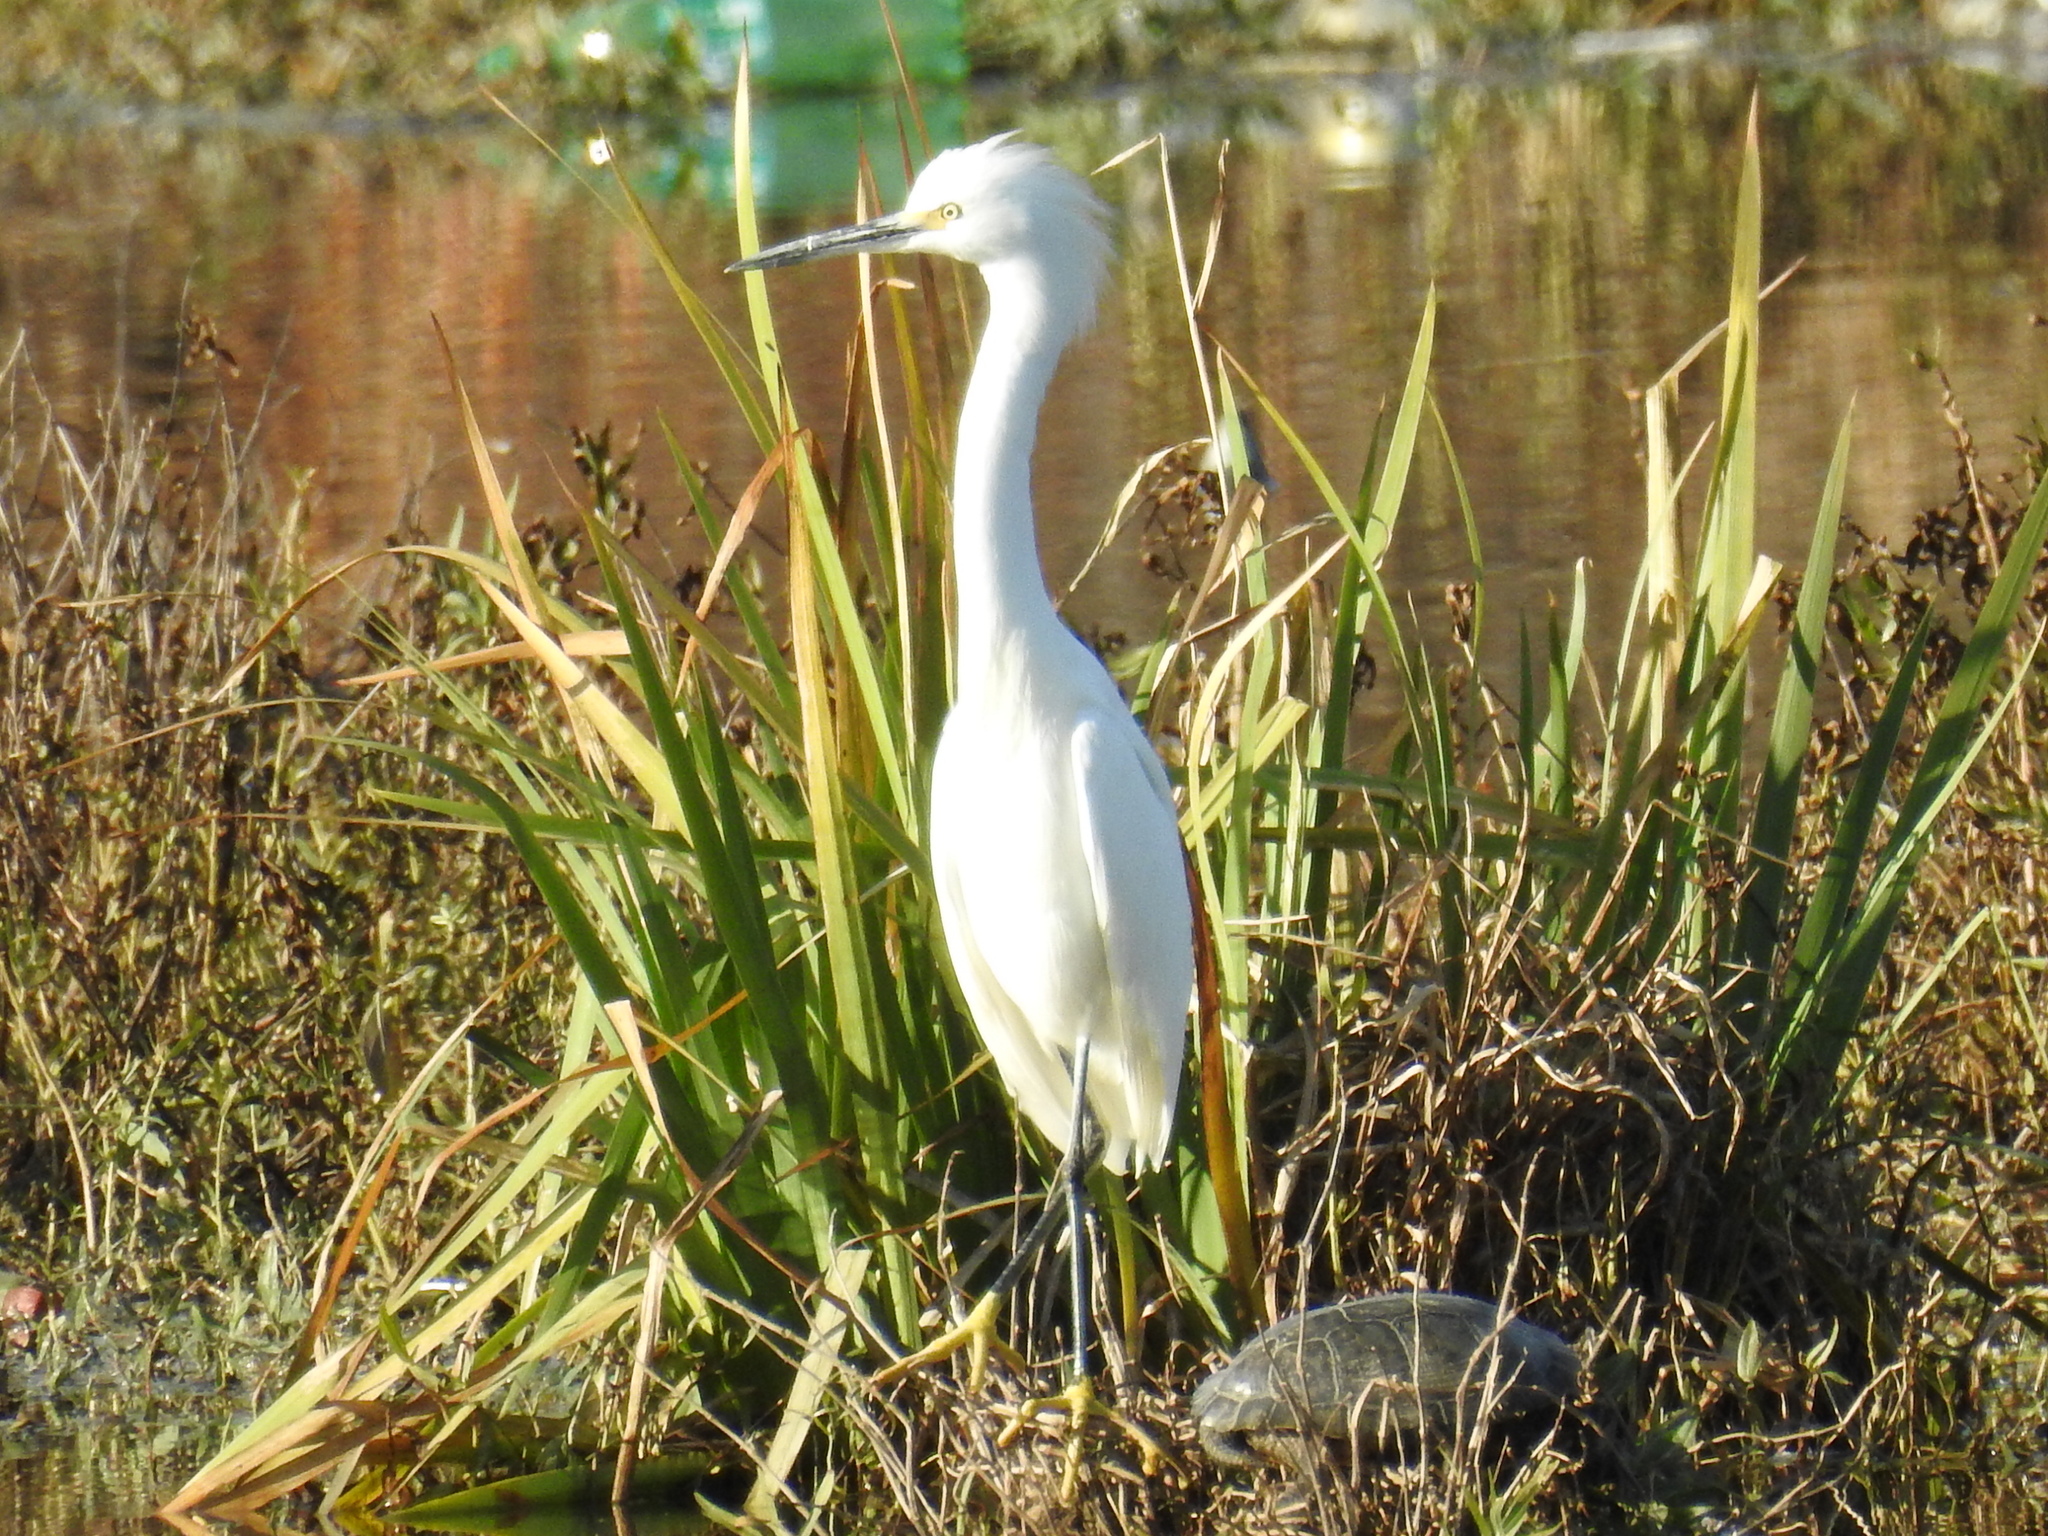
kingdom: Animalia
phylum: Chordata
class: Aves
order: Pelecaniformes
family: Ardeidae
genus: Egretta
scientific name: Egretta thula
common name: Snowy egret
